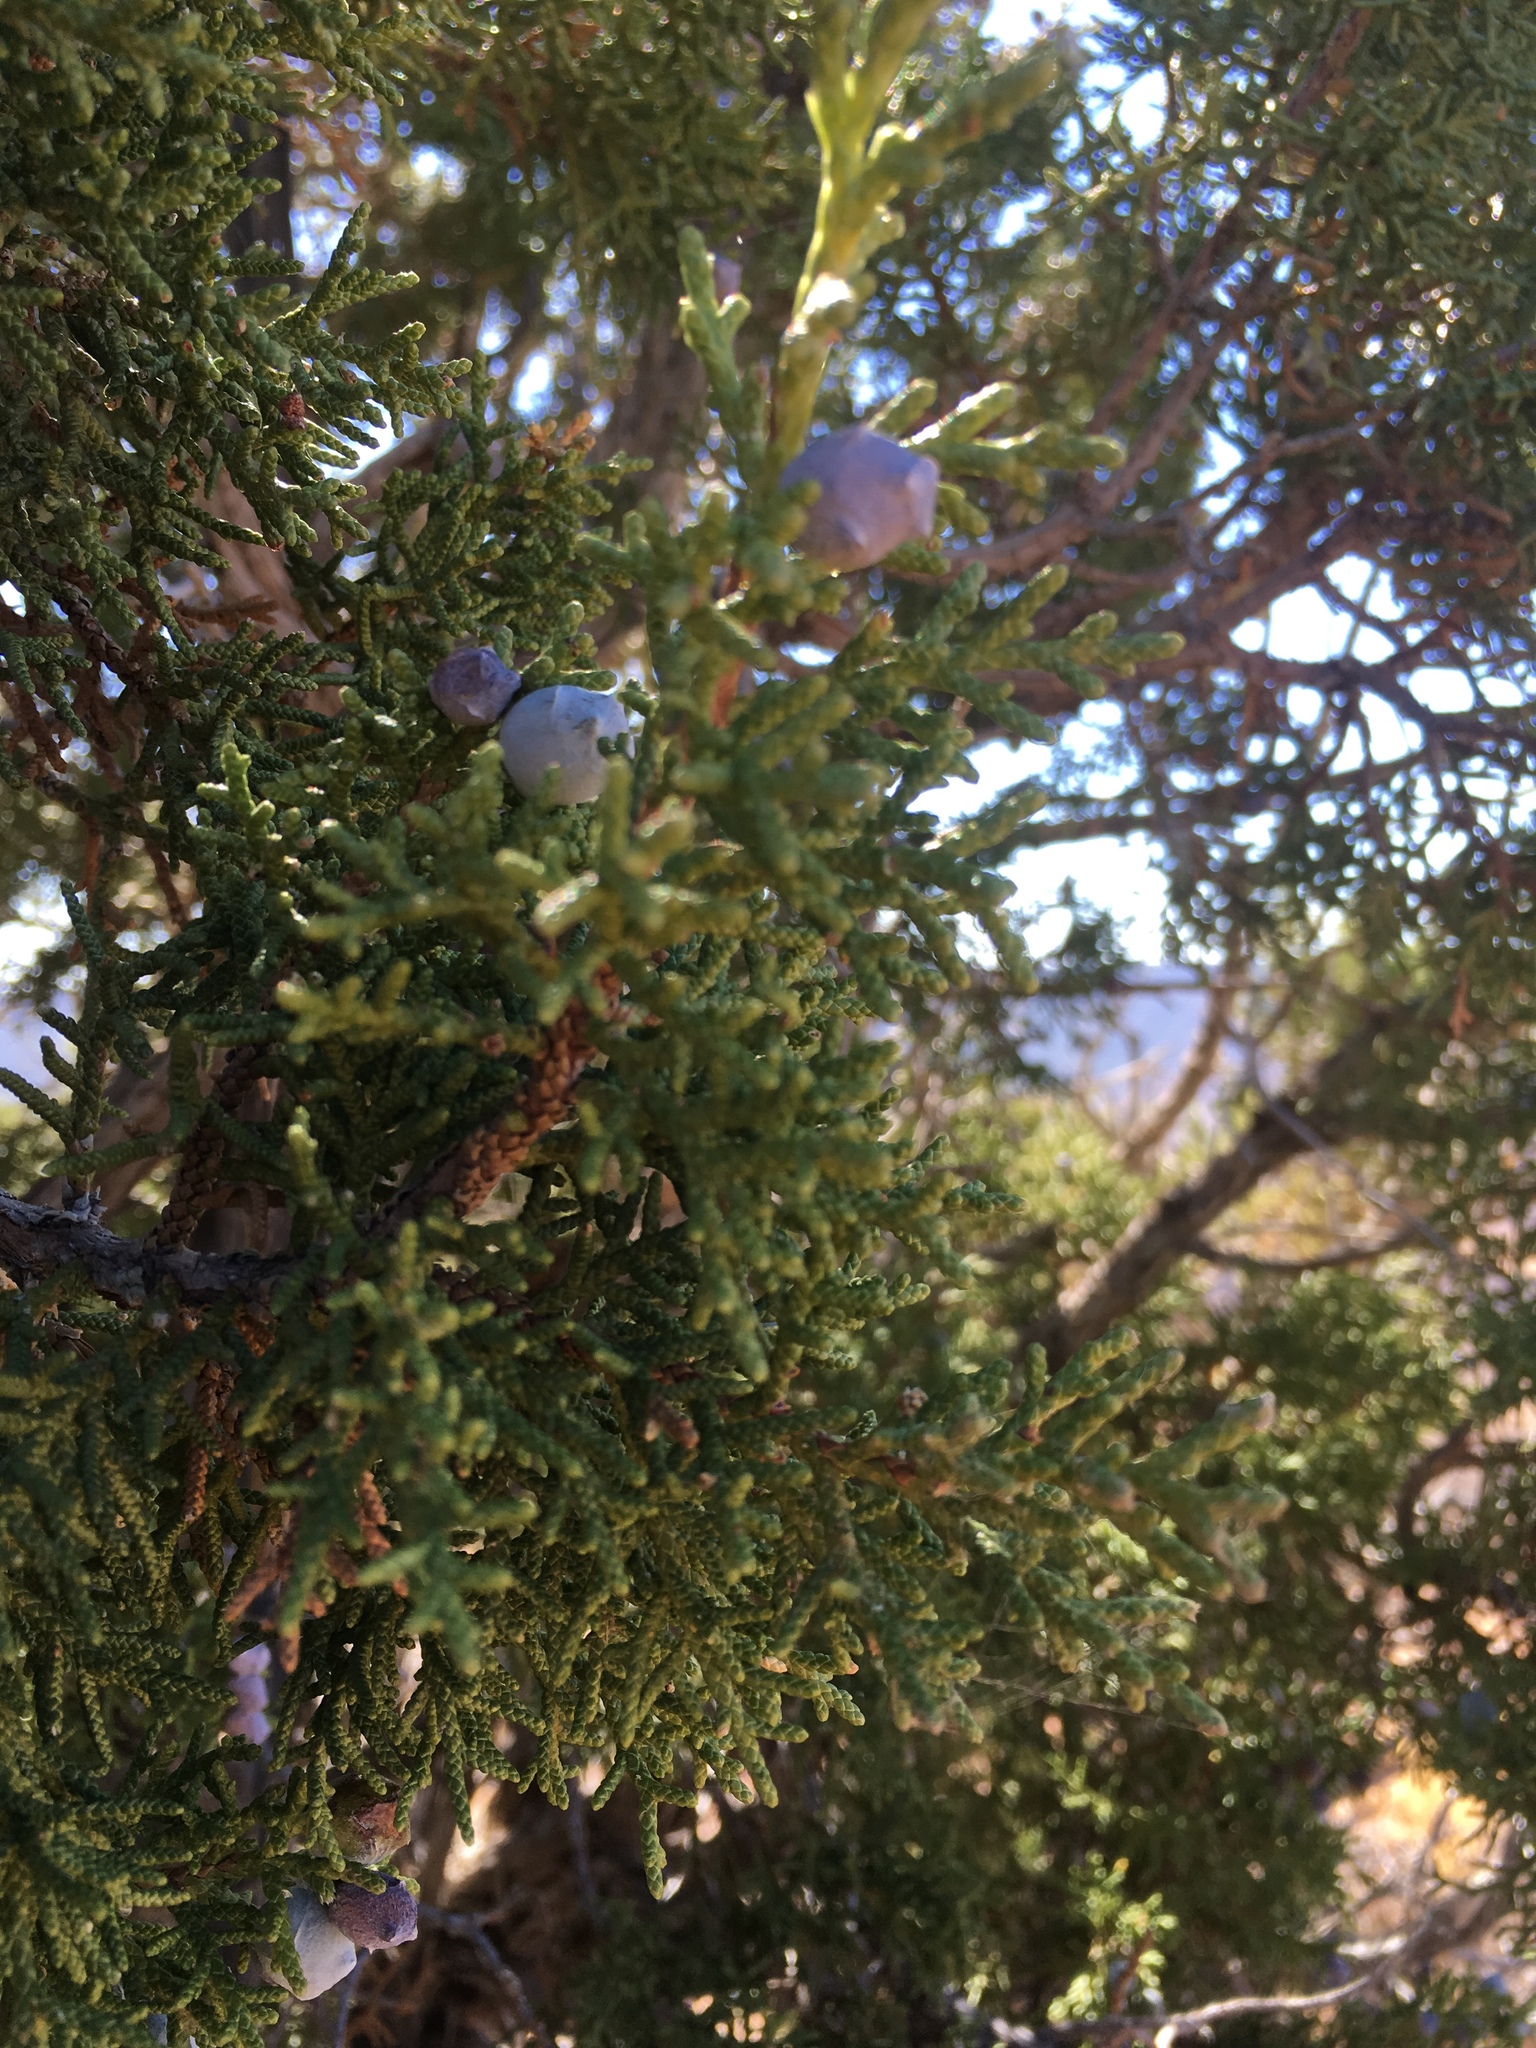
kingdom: Plantae
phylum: Tracheophyta
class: Pinopsida
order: Pinales
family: Cupressaceae
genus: Juniperus
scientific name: Juniperus osteosperma
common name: Utah juniper
